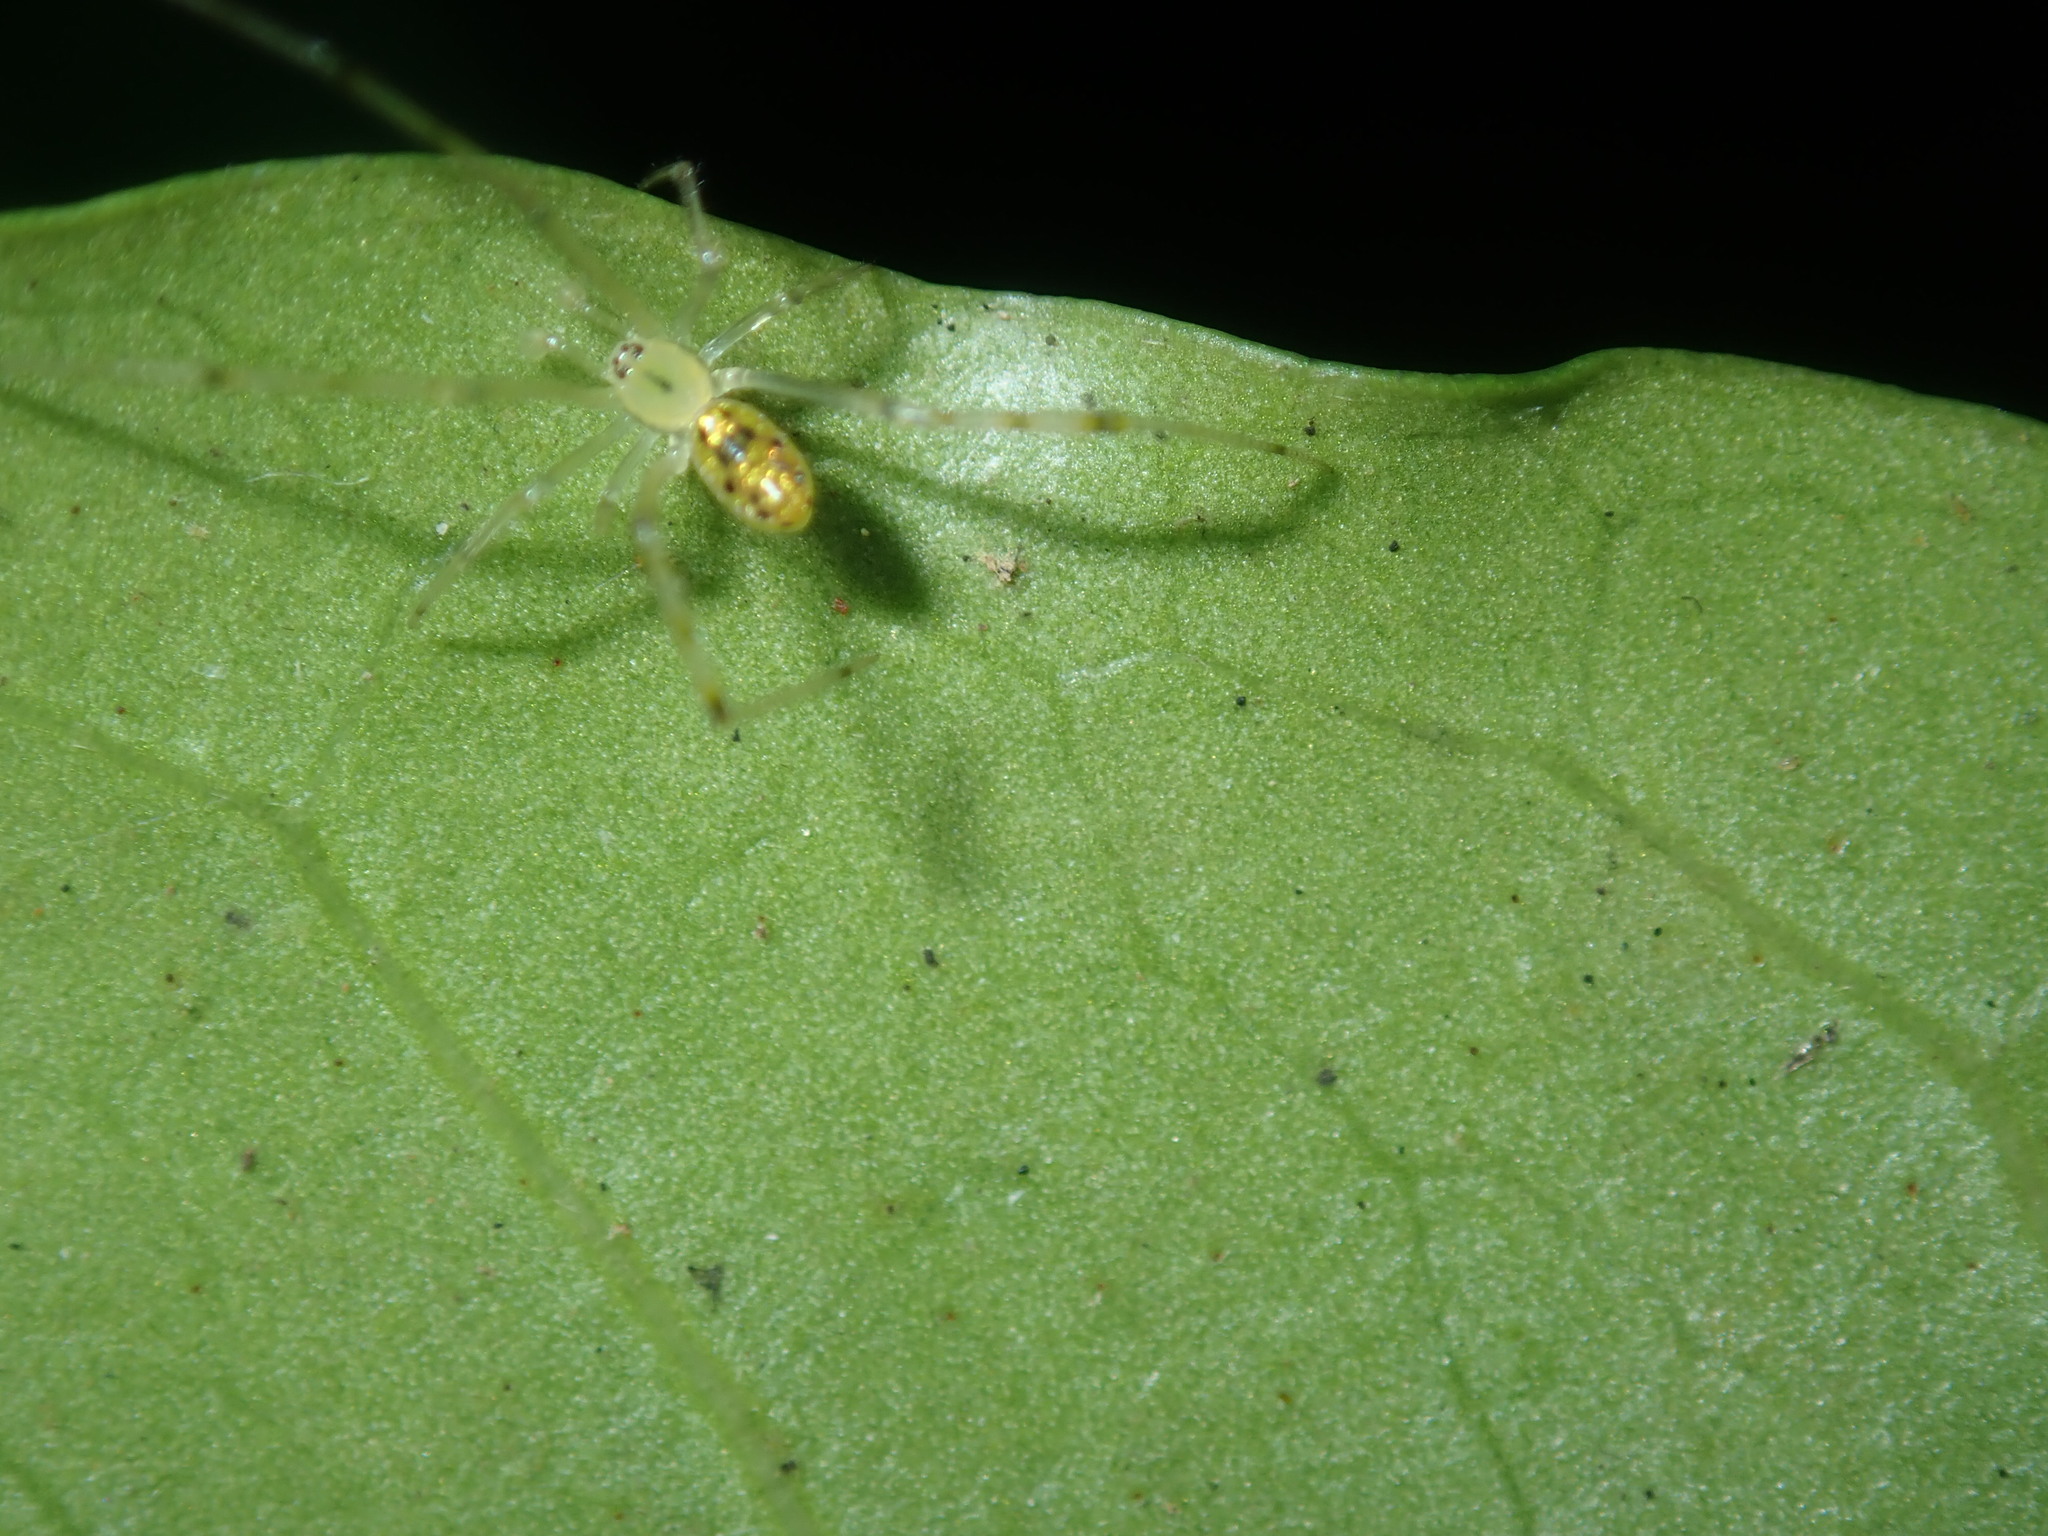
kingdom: Animalia
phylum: Arthropoda
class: Arachnida
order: Araneae
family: Theridiidae
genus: Thwaitesia
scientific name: Thwaitesia nigronodosa
